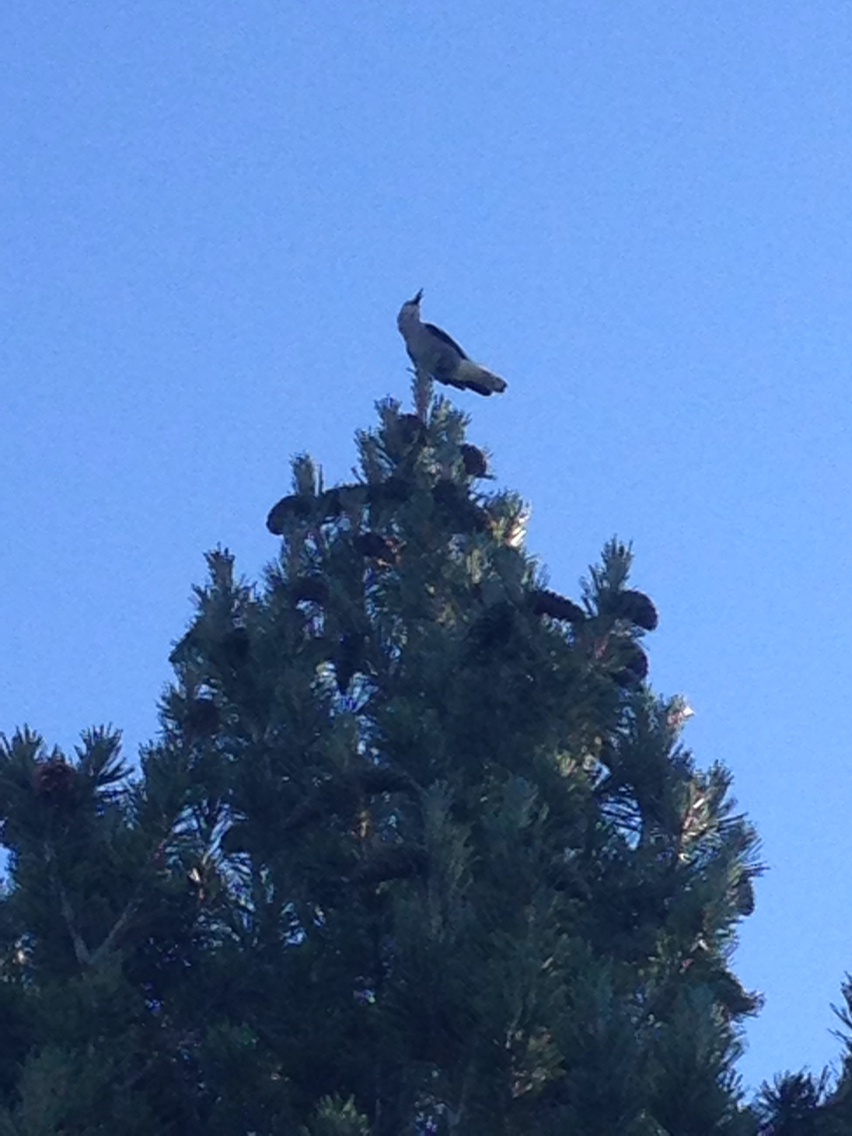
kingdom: Animalia
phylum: Chordata
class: Aves
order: Passeriformes
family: Corvidae
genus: Nucifraga
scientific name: Nucifraga columbiana
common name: Clark's nutcracker
